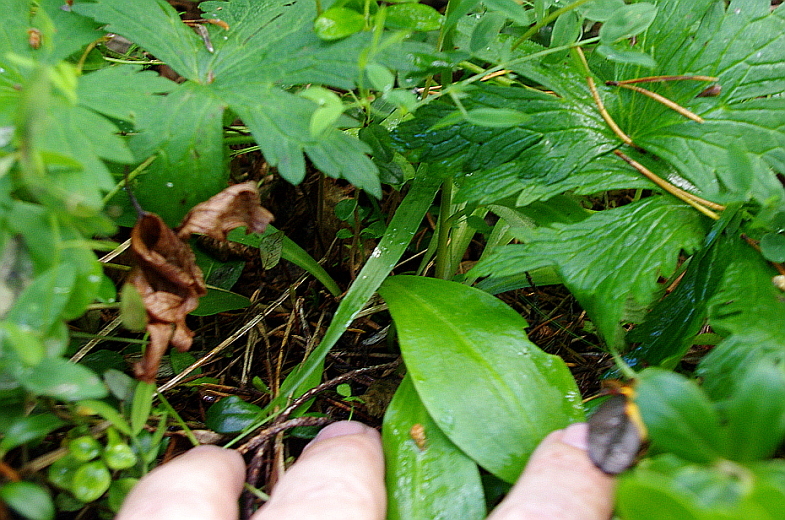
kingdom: Plantae
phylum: Tracheophyta
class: Liliopsida
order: Asparagales
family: Orchidaceae
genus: Platanthera
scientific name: Platanthera bifolia
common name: Lesser butterfly-orchid
